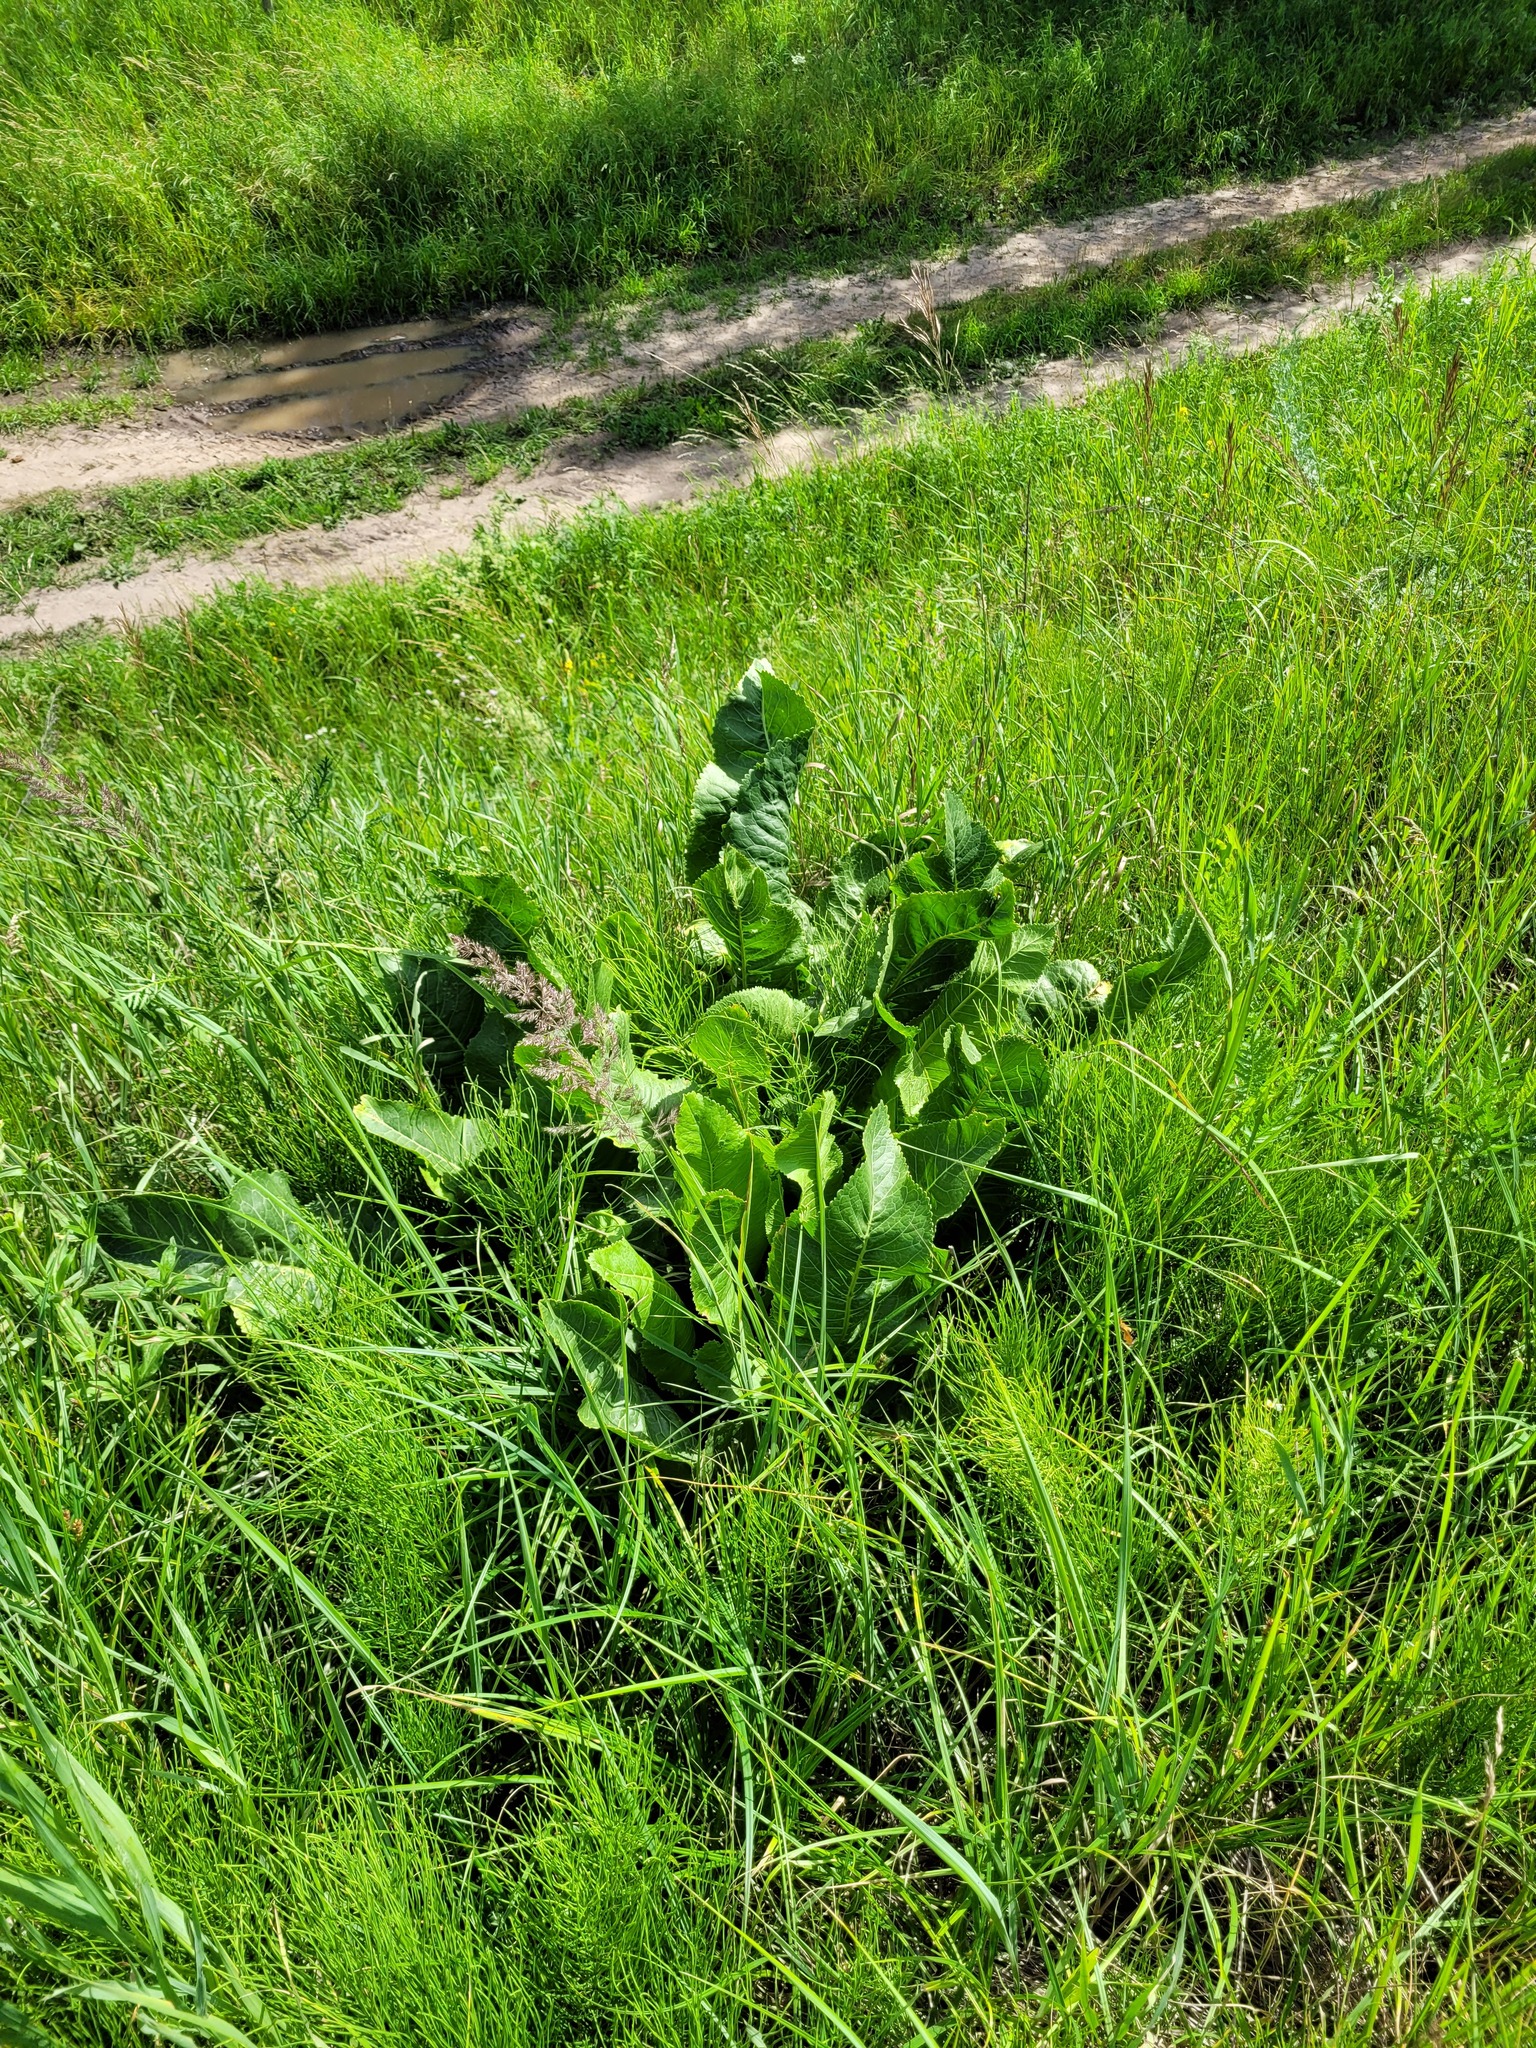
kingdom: Plantae
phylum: Tracheophyta
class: Magnoliopsida
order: Brassicales
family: Brassicaceae
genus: Armoracia
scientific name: Armoracia rusticana
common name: Horseradish
